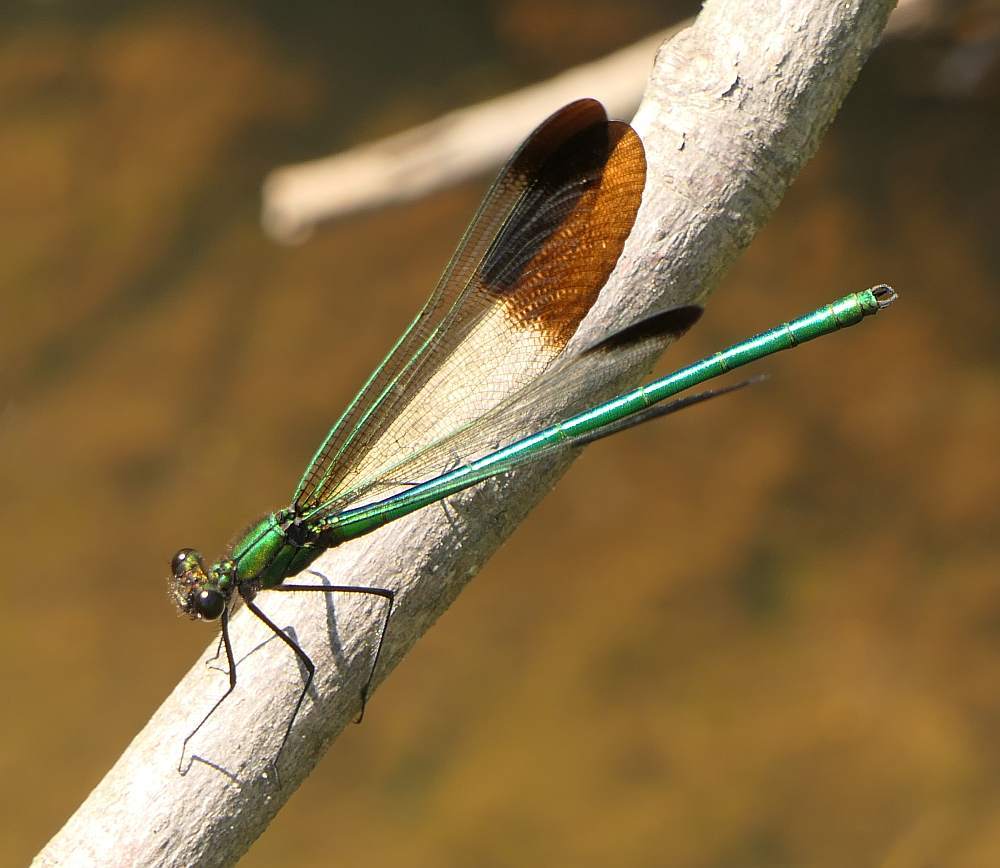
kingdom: Animalia
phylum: Arthropoda
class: Insecta
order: Odonata
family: Calopterygidae
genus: Calopteryx
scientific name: Calopteryx aequabilis
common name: River jewelwing
